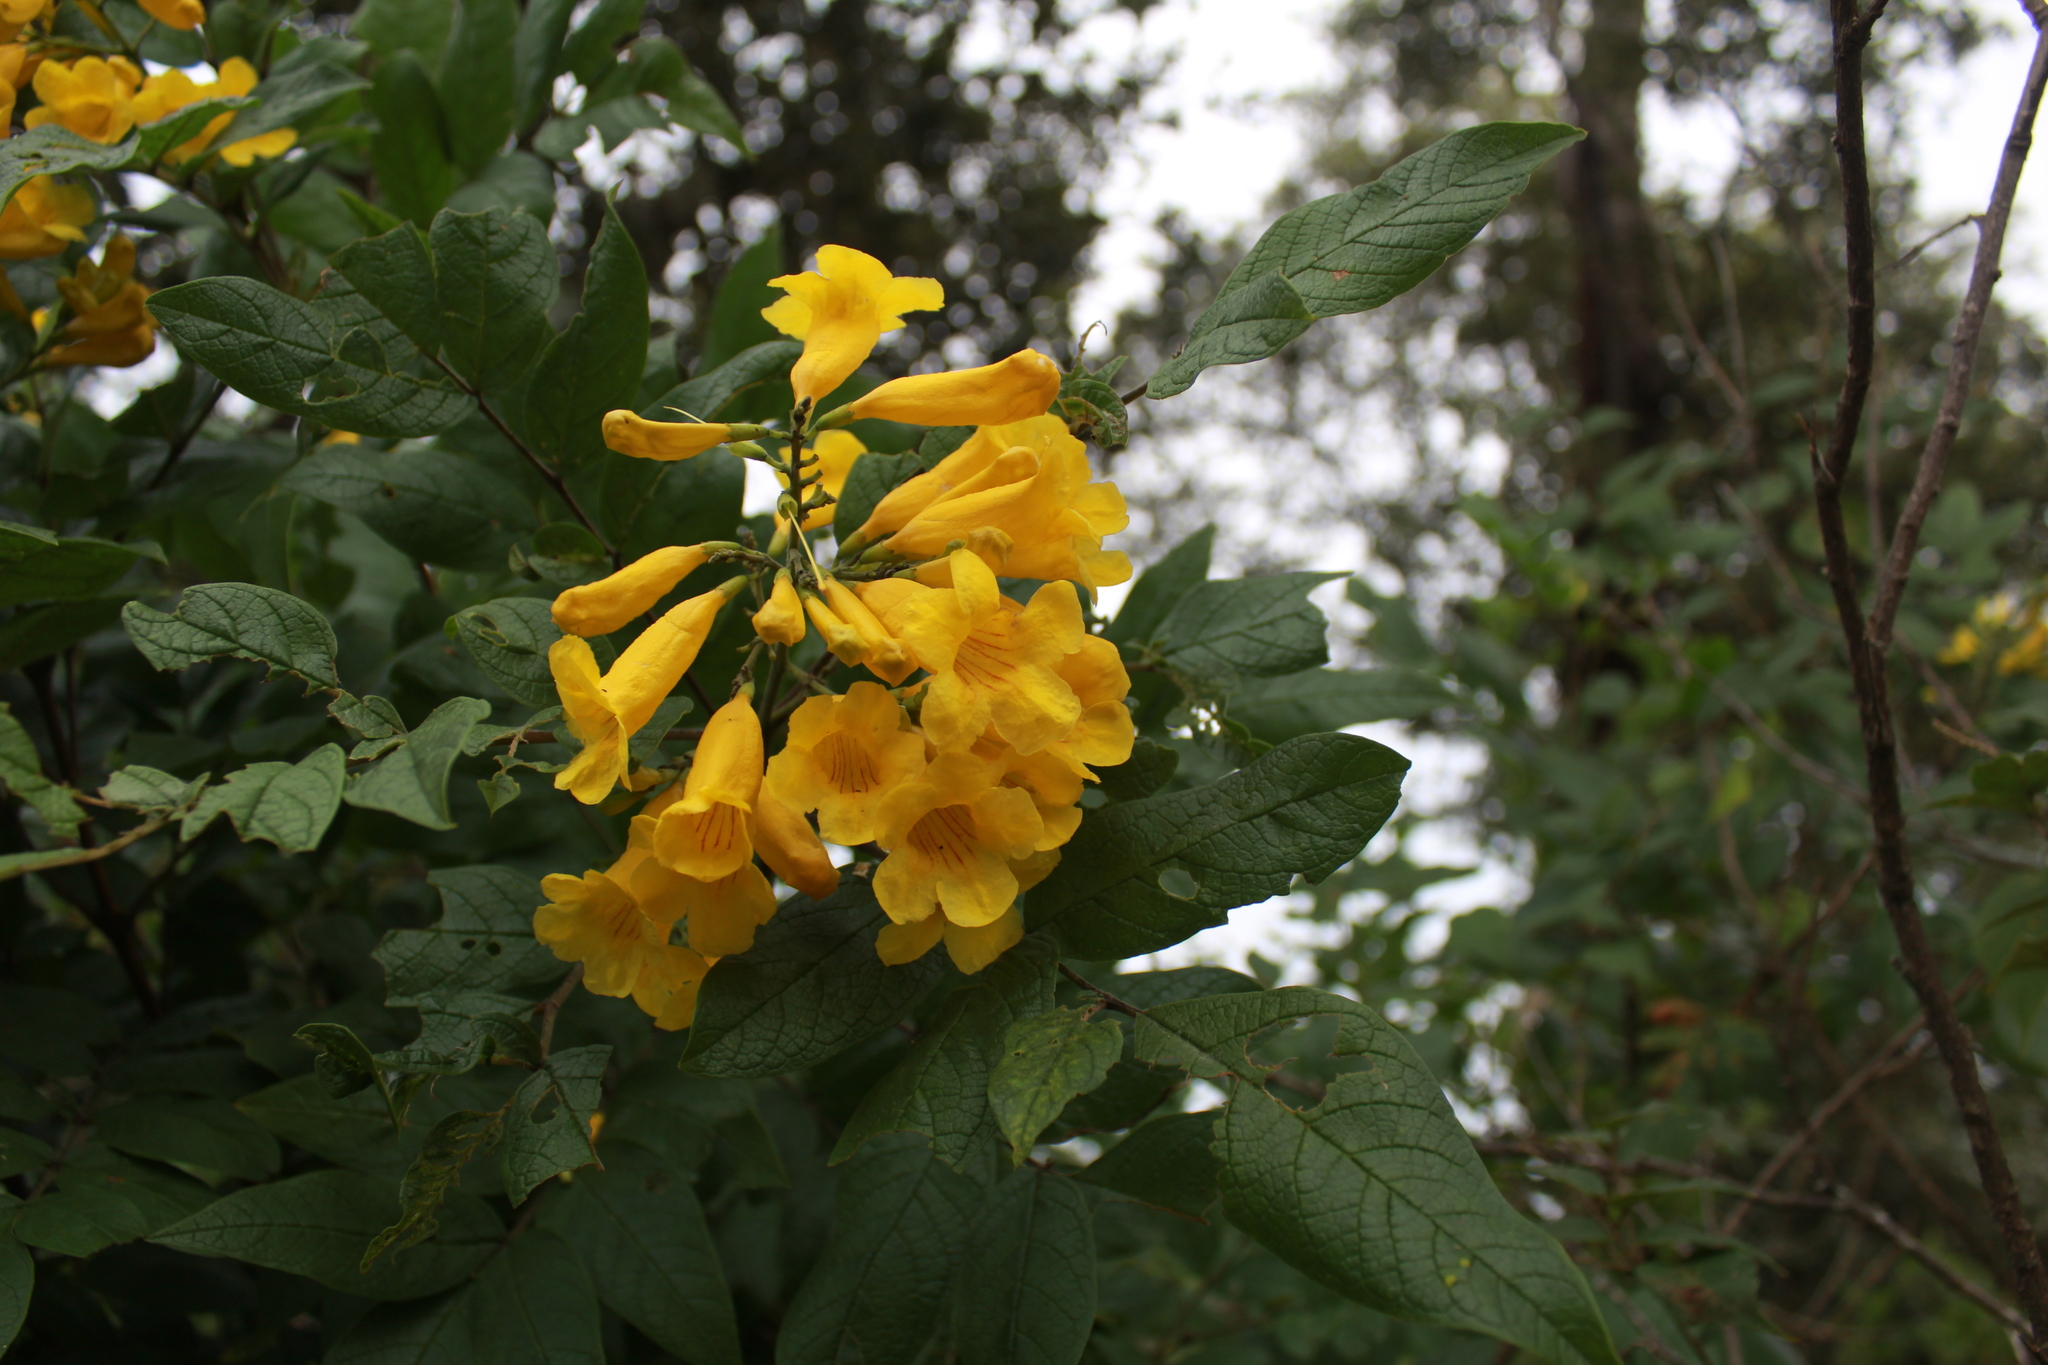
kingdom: Plantae
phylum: Tracheophyta
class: Magnoliopsida
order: Lamiales
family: Bignoniaceae
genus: Tecoma
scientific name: Tecoma stans
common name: Yellow trumpetbush
